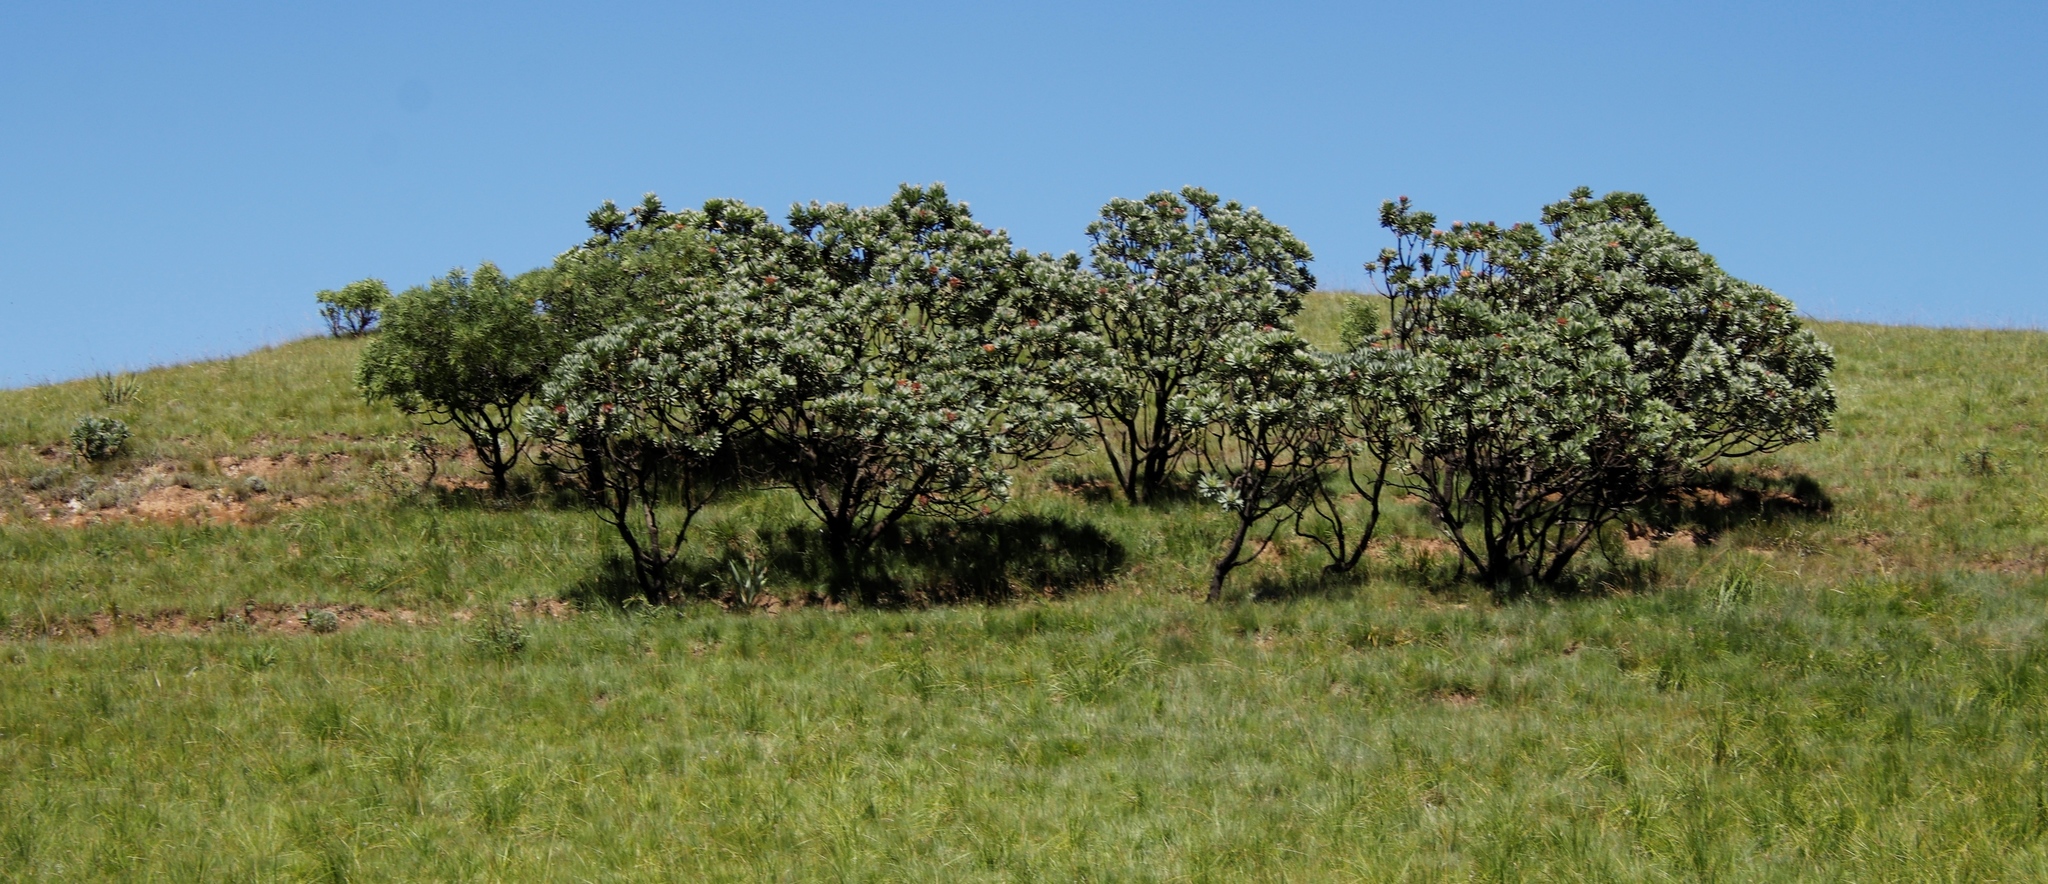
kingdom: Plantae
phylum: Tracheophyta
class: Magnoliopsida
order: Proteales
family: Proteaceae
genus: Protea
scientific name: Protea roupelliae
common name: Silver sugarbush
